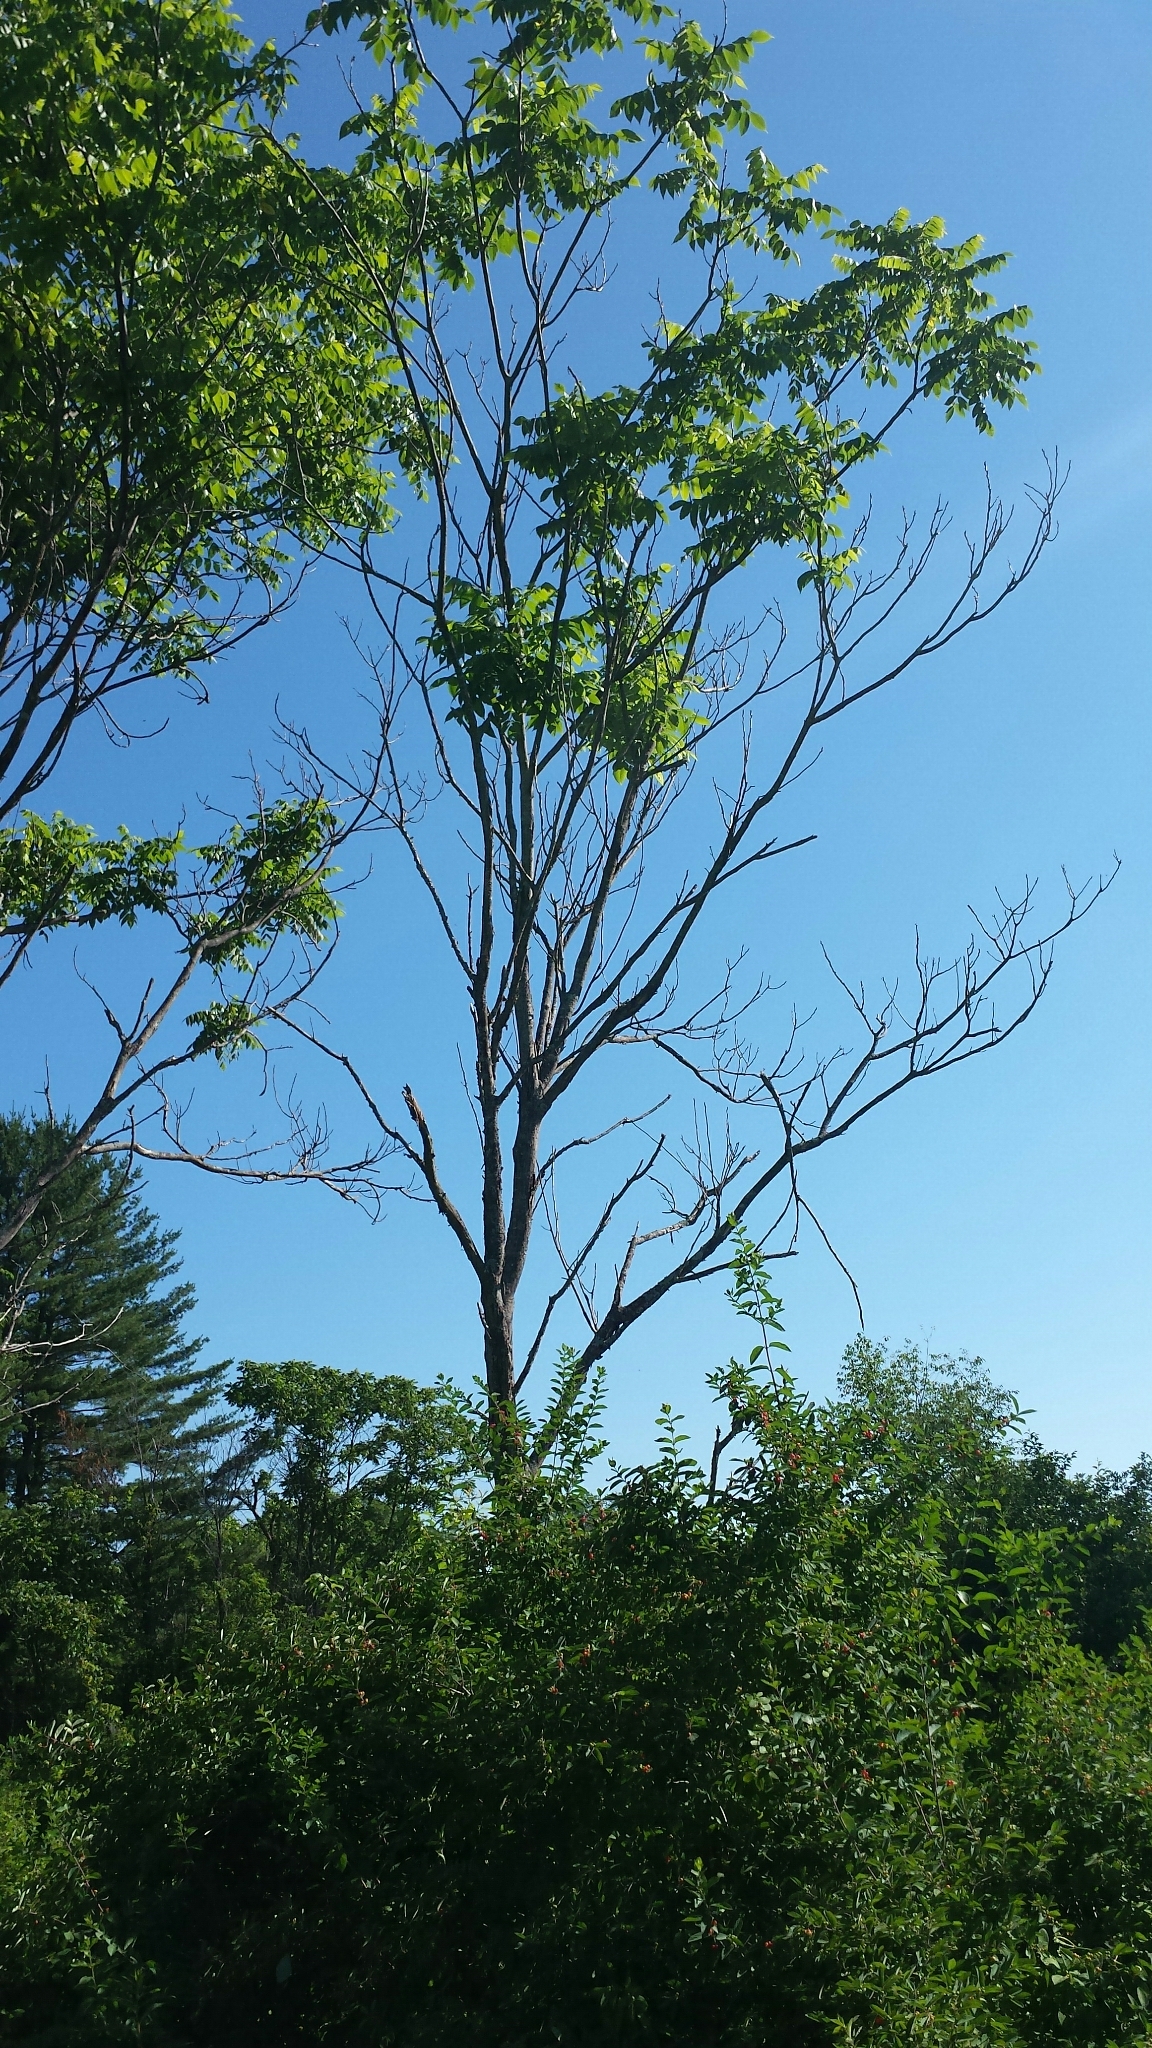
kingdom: Plantae
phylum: Tracheophyta
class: Magnoliopsida
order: Fagales
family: Juglandaceae
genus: Juglans
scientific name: Juglans cinerea
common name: Butternut
